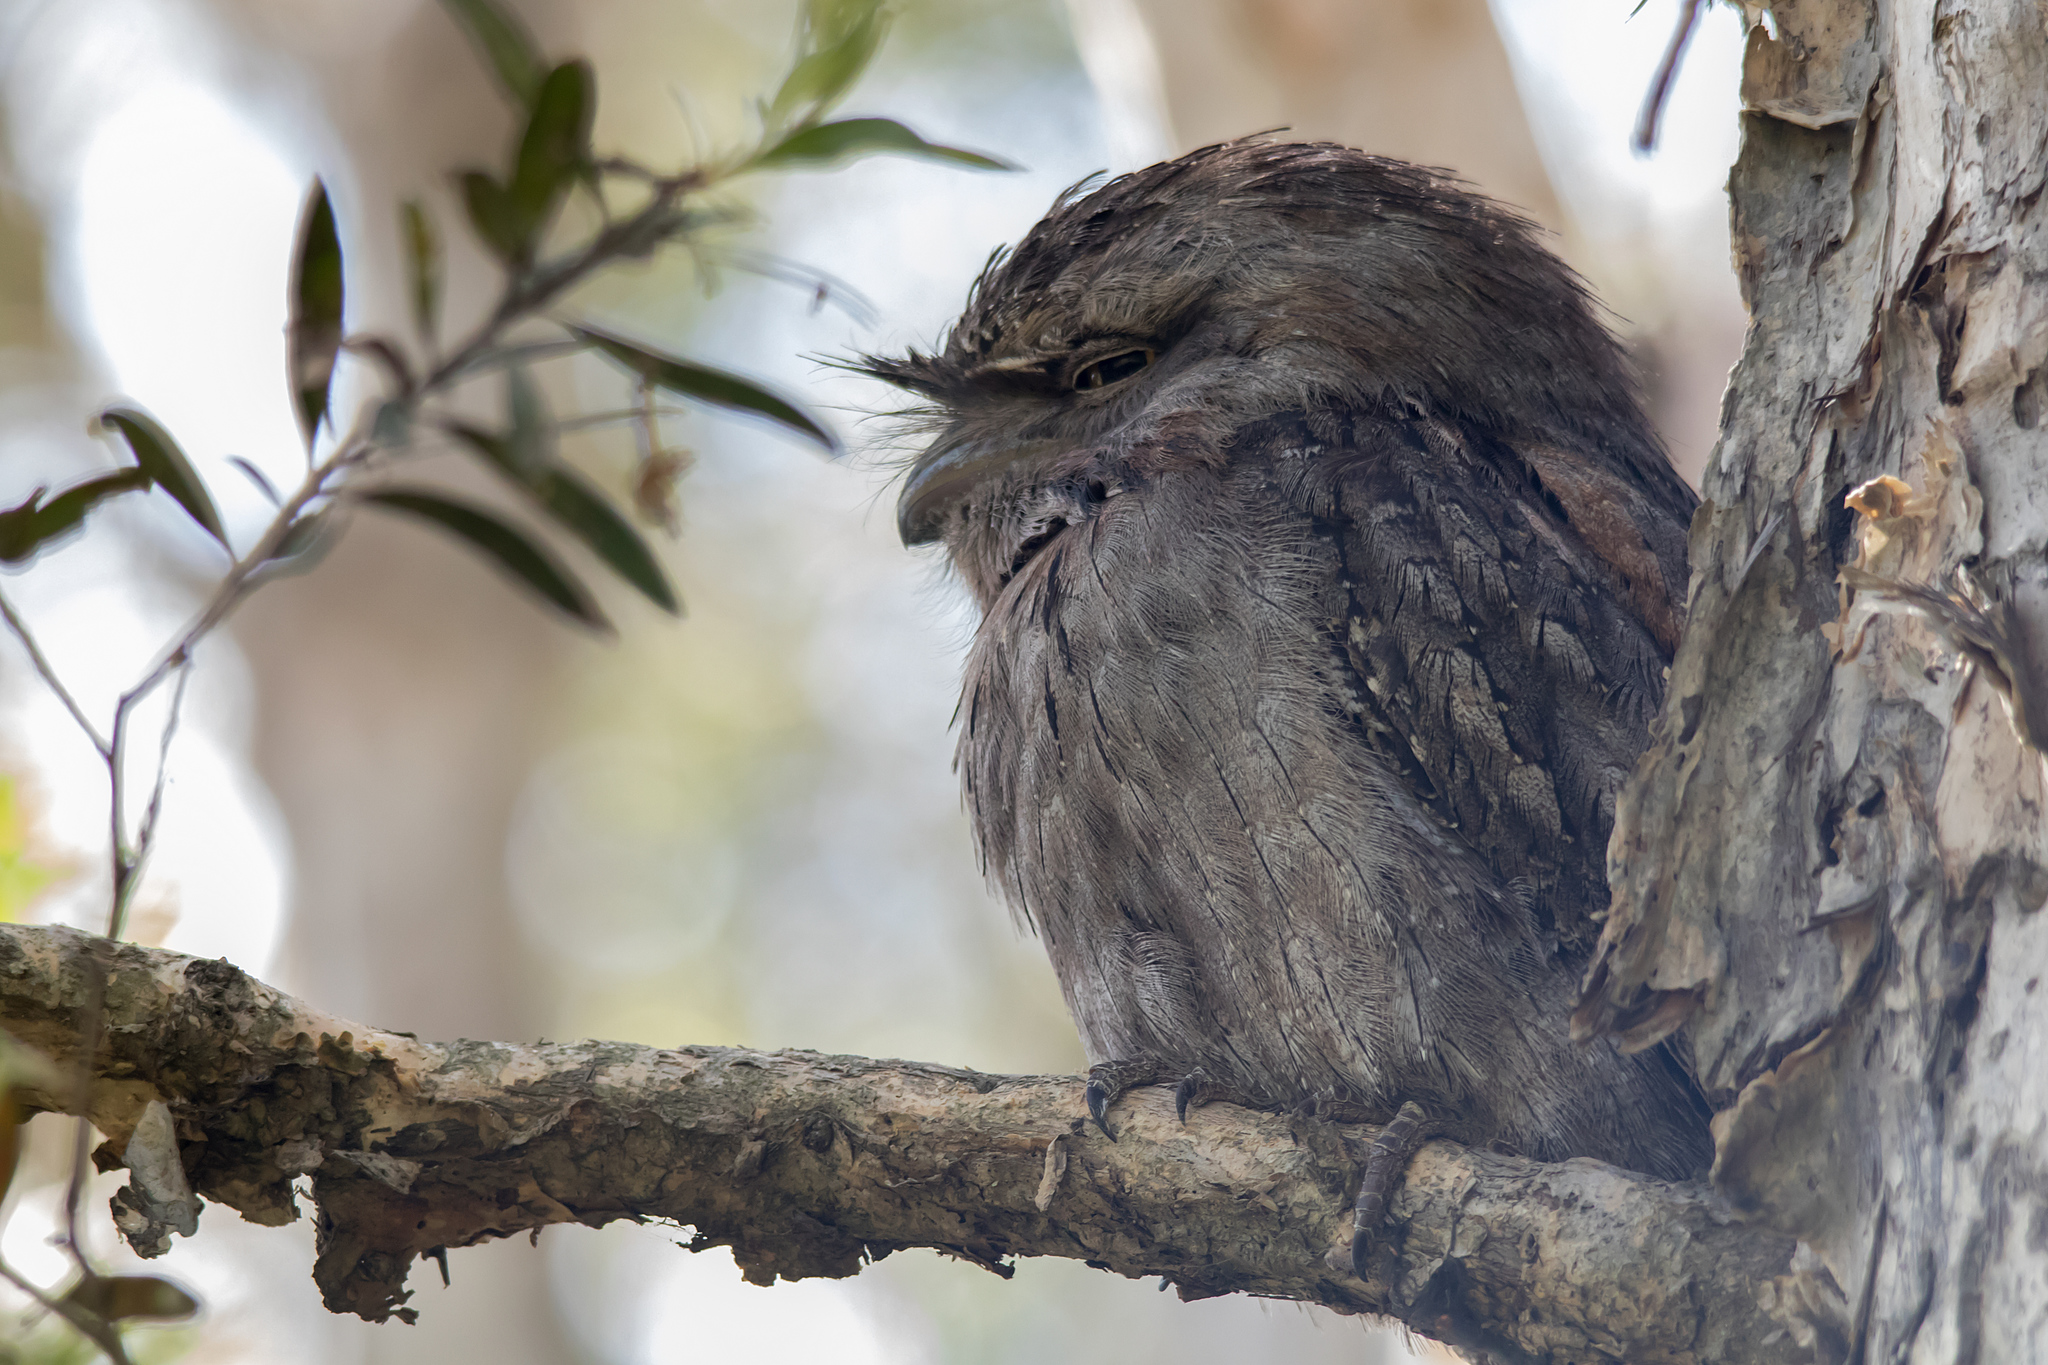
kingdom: Animalia
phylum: Chordata
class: Aves
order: Caprimulgiformes
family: Podargidae
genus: Podargus
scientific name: Podargus strigoides
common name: Tawny frogmouth
